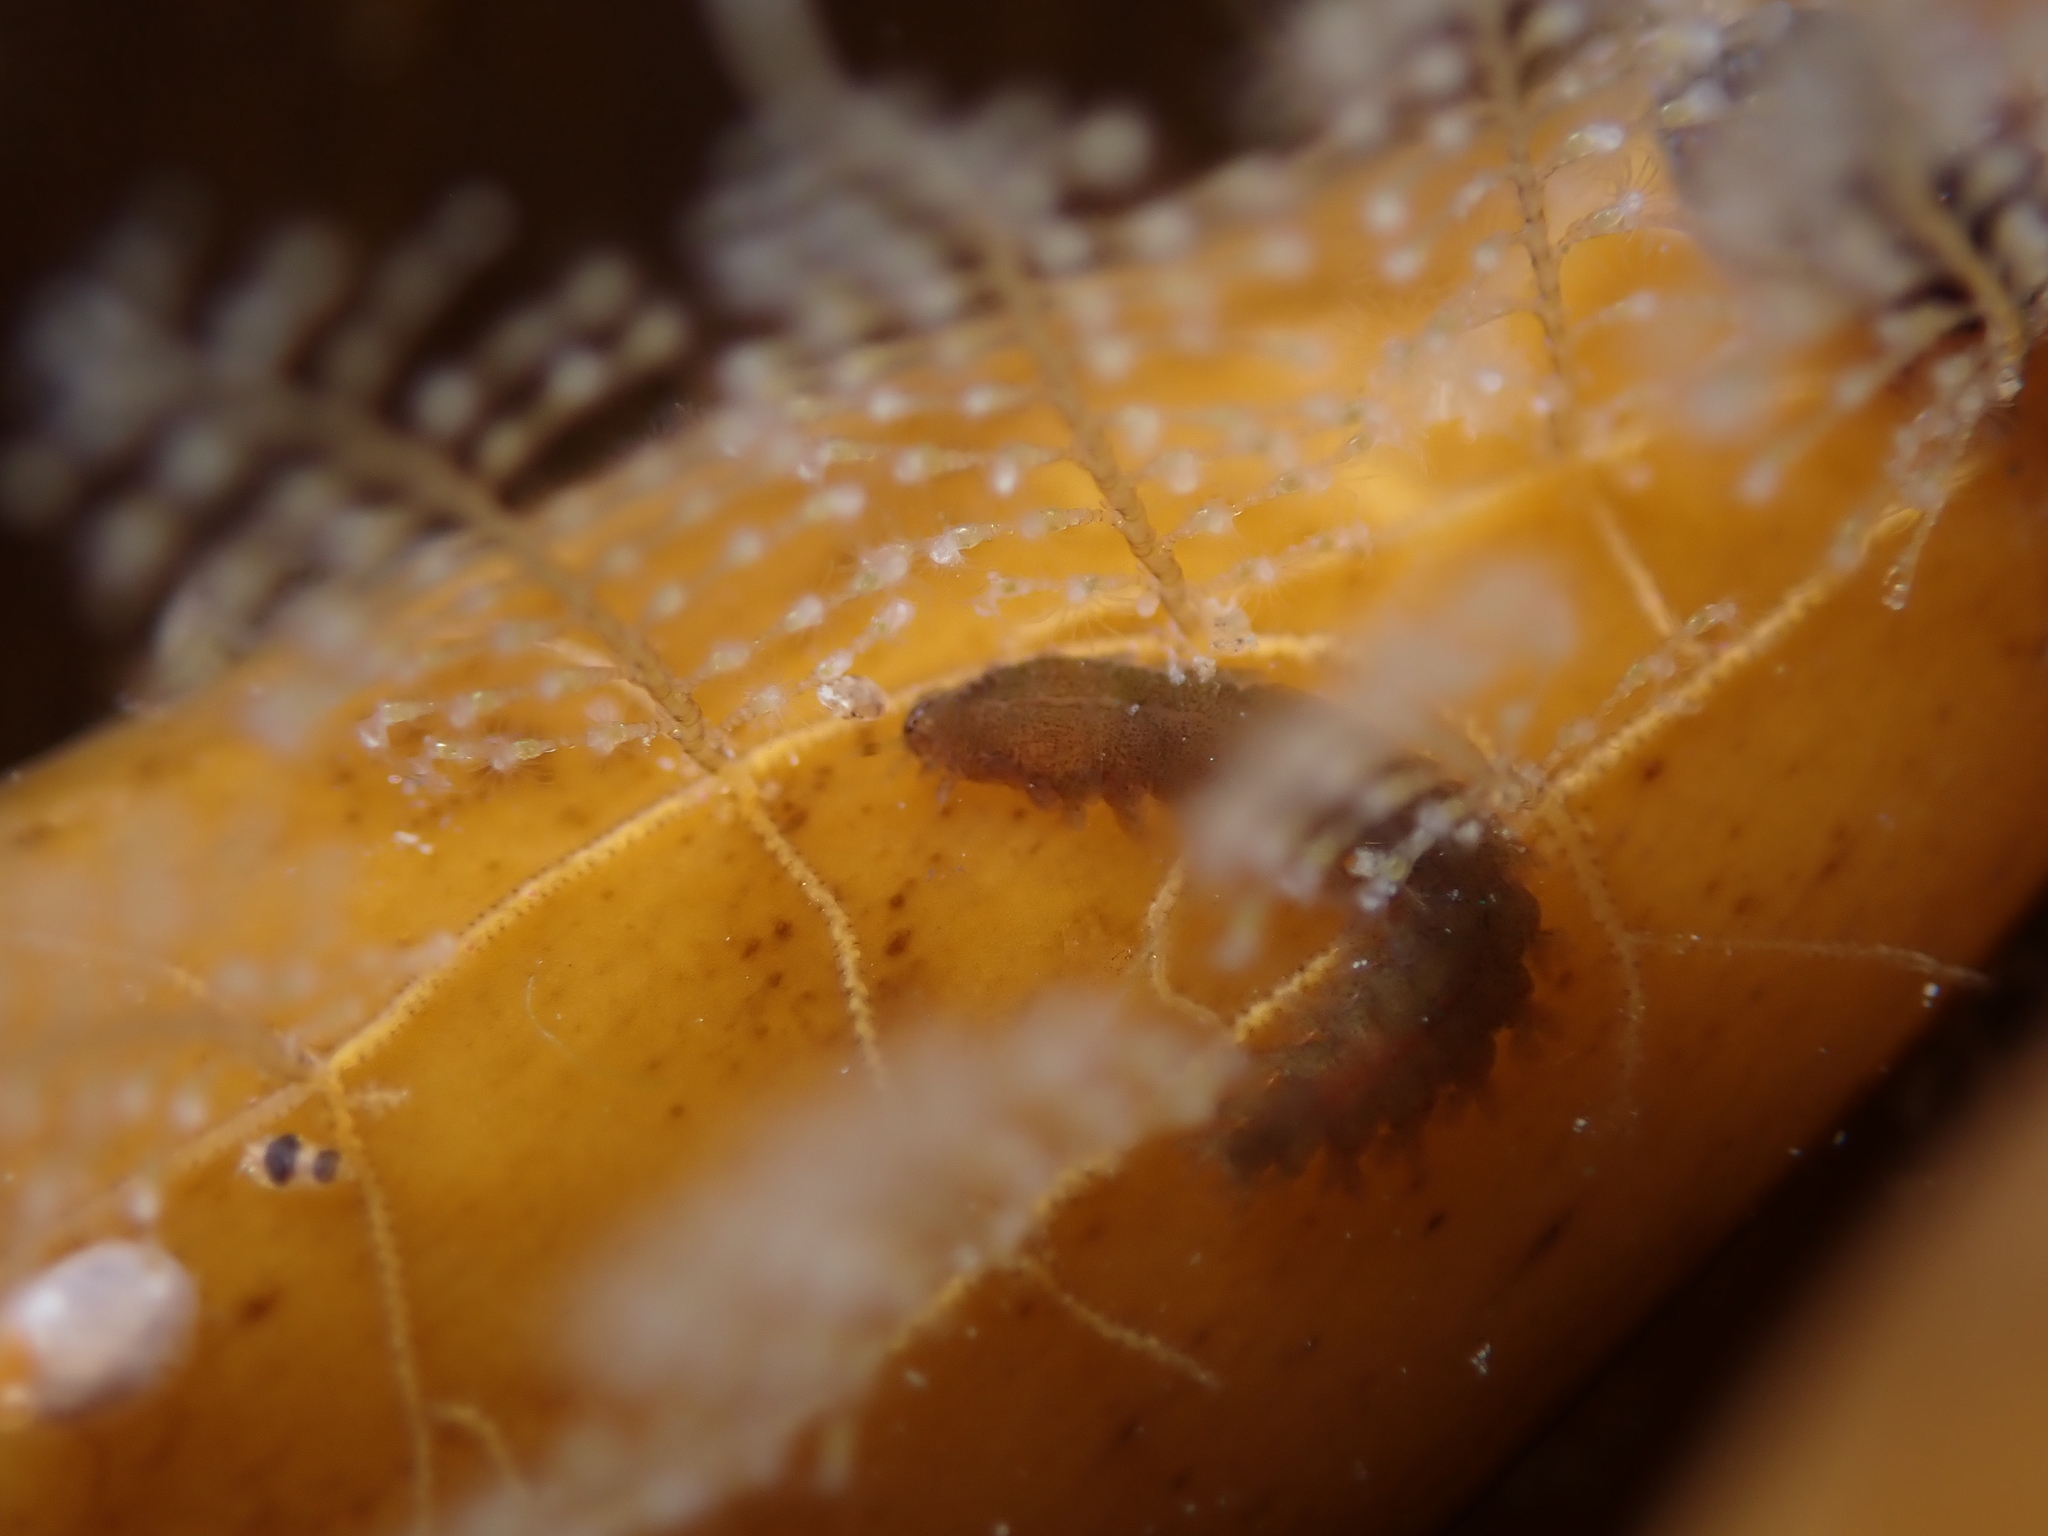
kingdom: Animalia
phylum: Annelida
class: Polychaeta
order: Phyllodocida
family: Nereididae
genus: Micronereis
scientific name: Micronereis minuta
